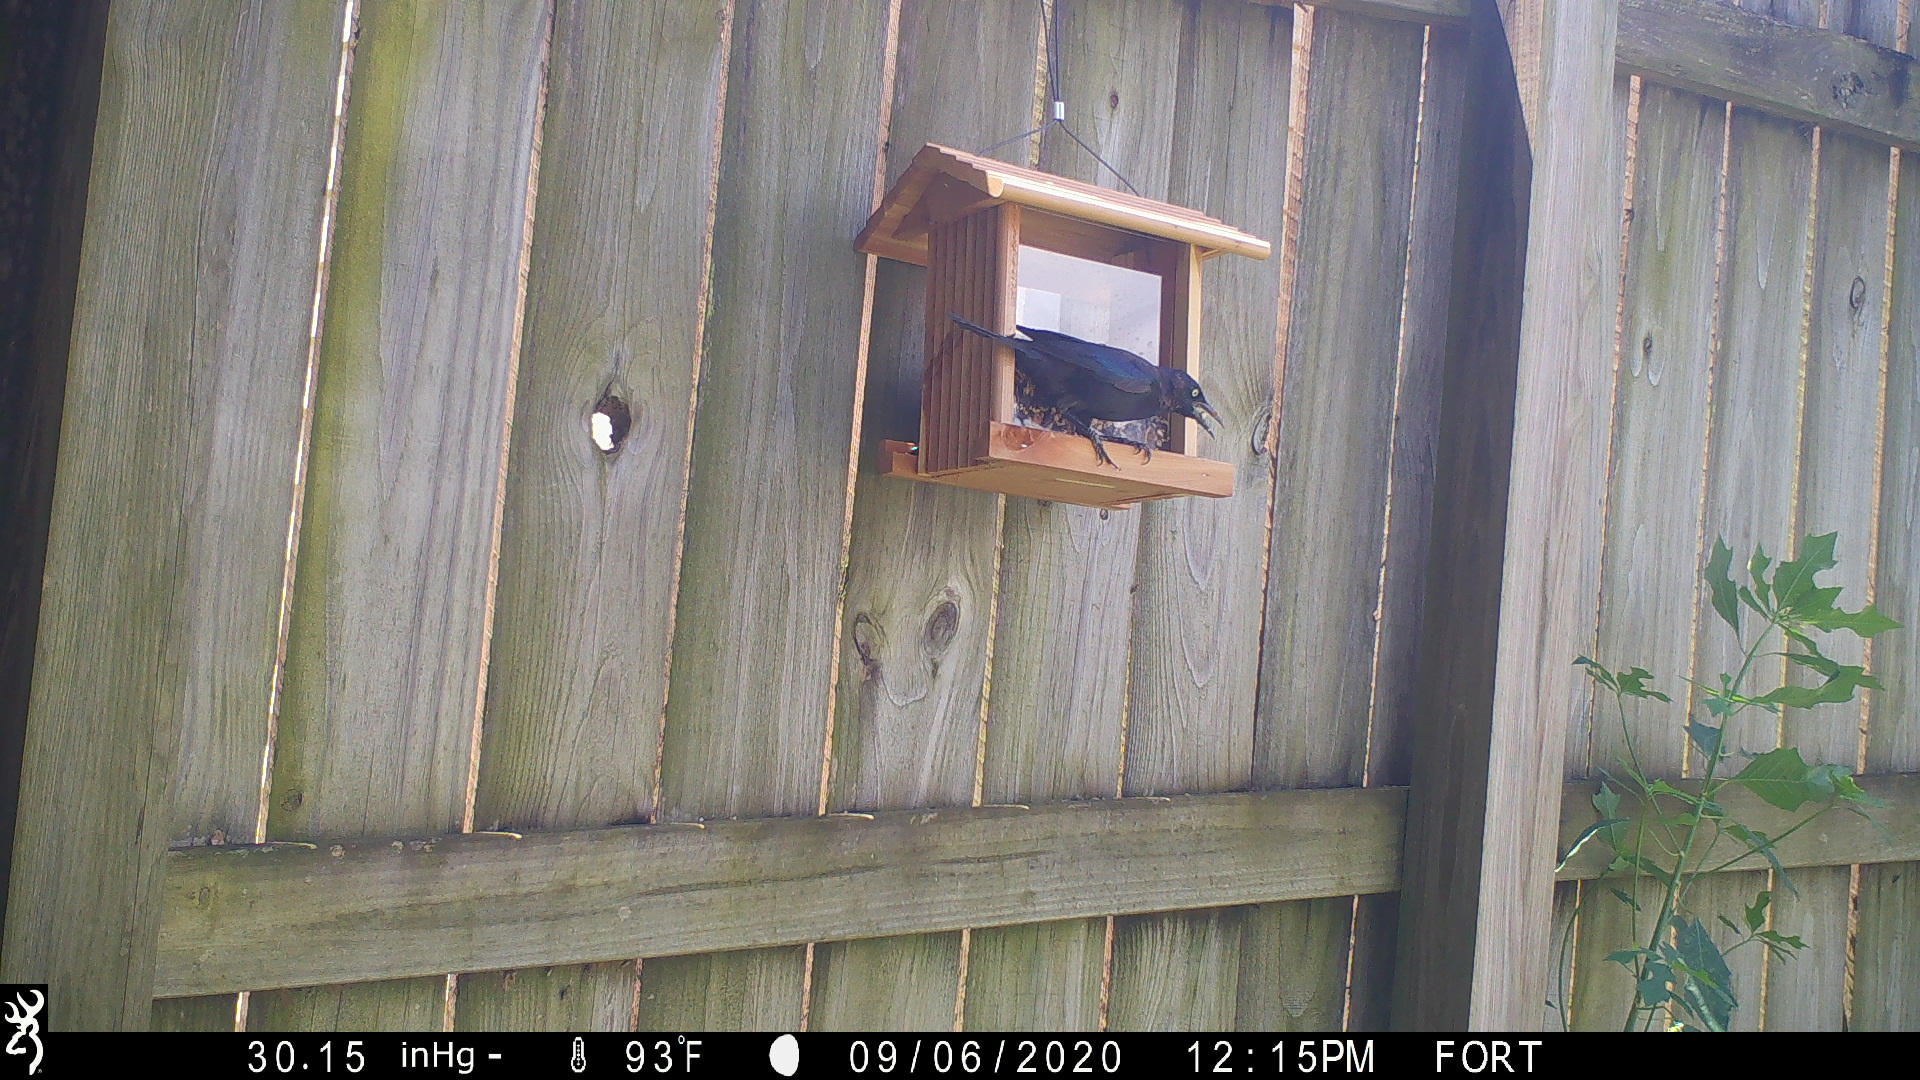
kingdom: Animalia
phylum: Chordata
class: Aves
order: Passeriformes
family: Icteridae
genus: Quiscalus
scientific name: Quiscalus quiscula
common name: Common grackle
